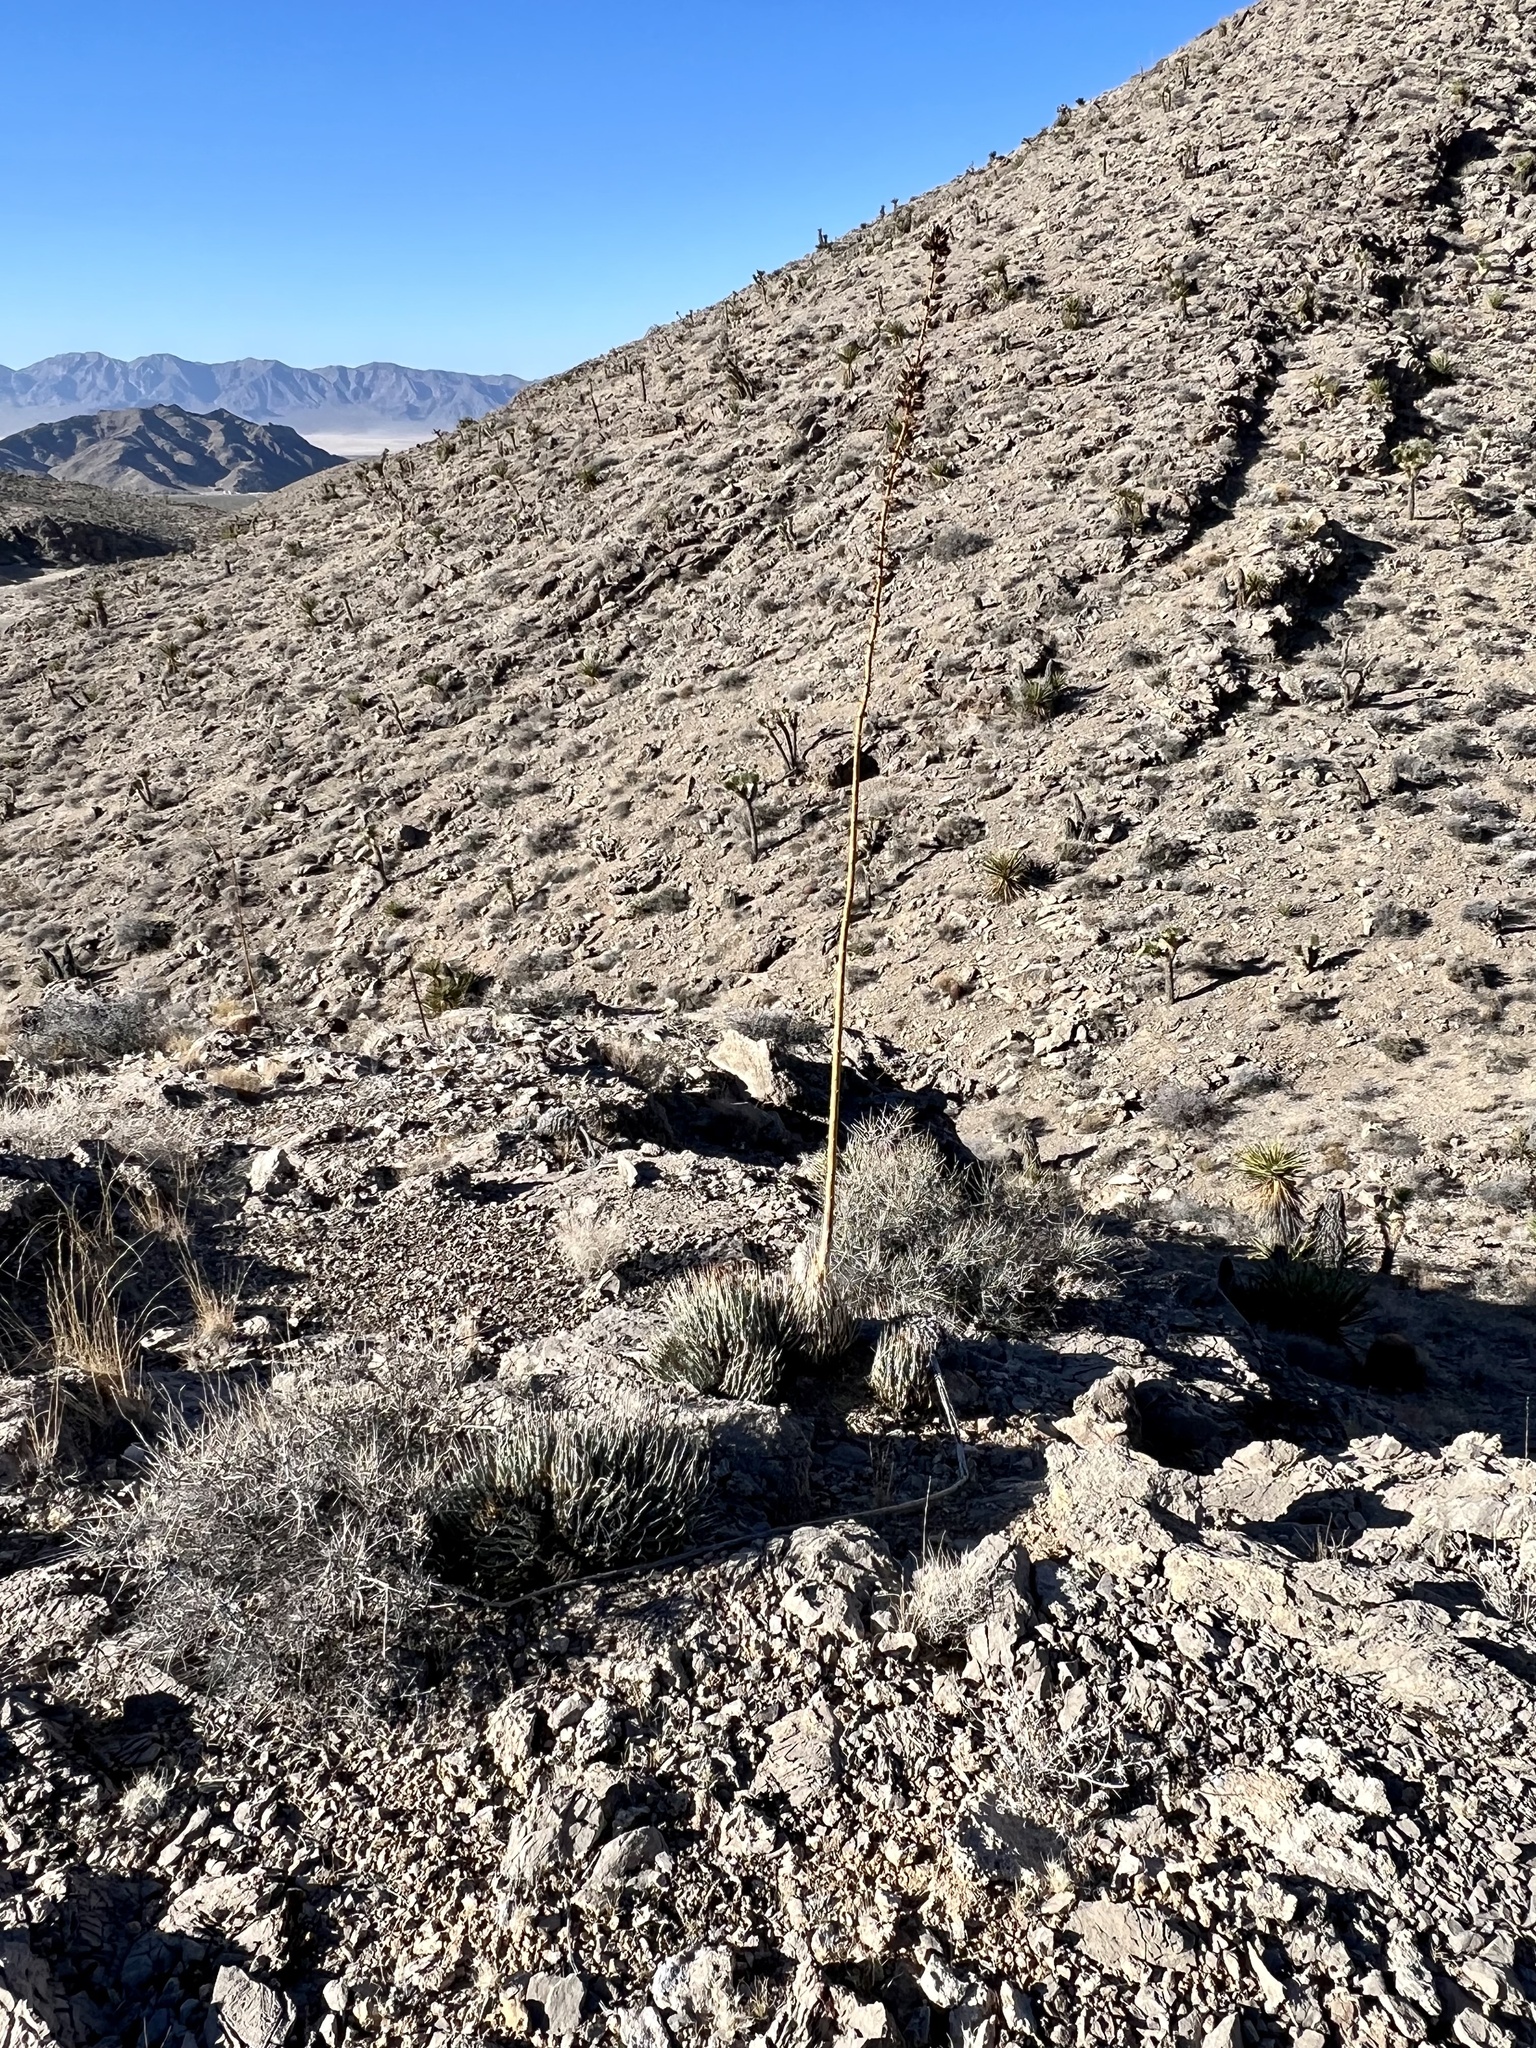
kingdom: Plantae
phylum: Tracheophyta
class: Liliopsida
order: Asparagales
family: Asparagaceae
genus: Agave
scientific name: Agave utahensis
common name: Utah agave
